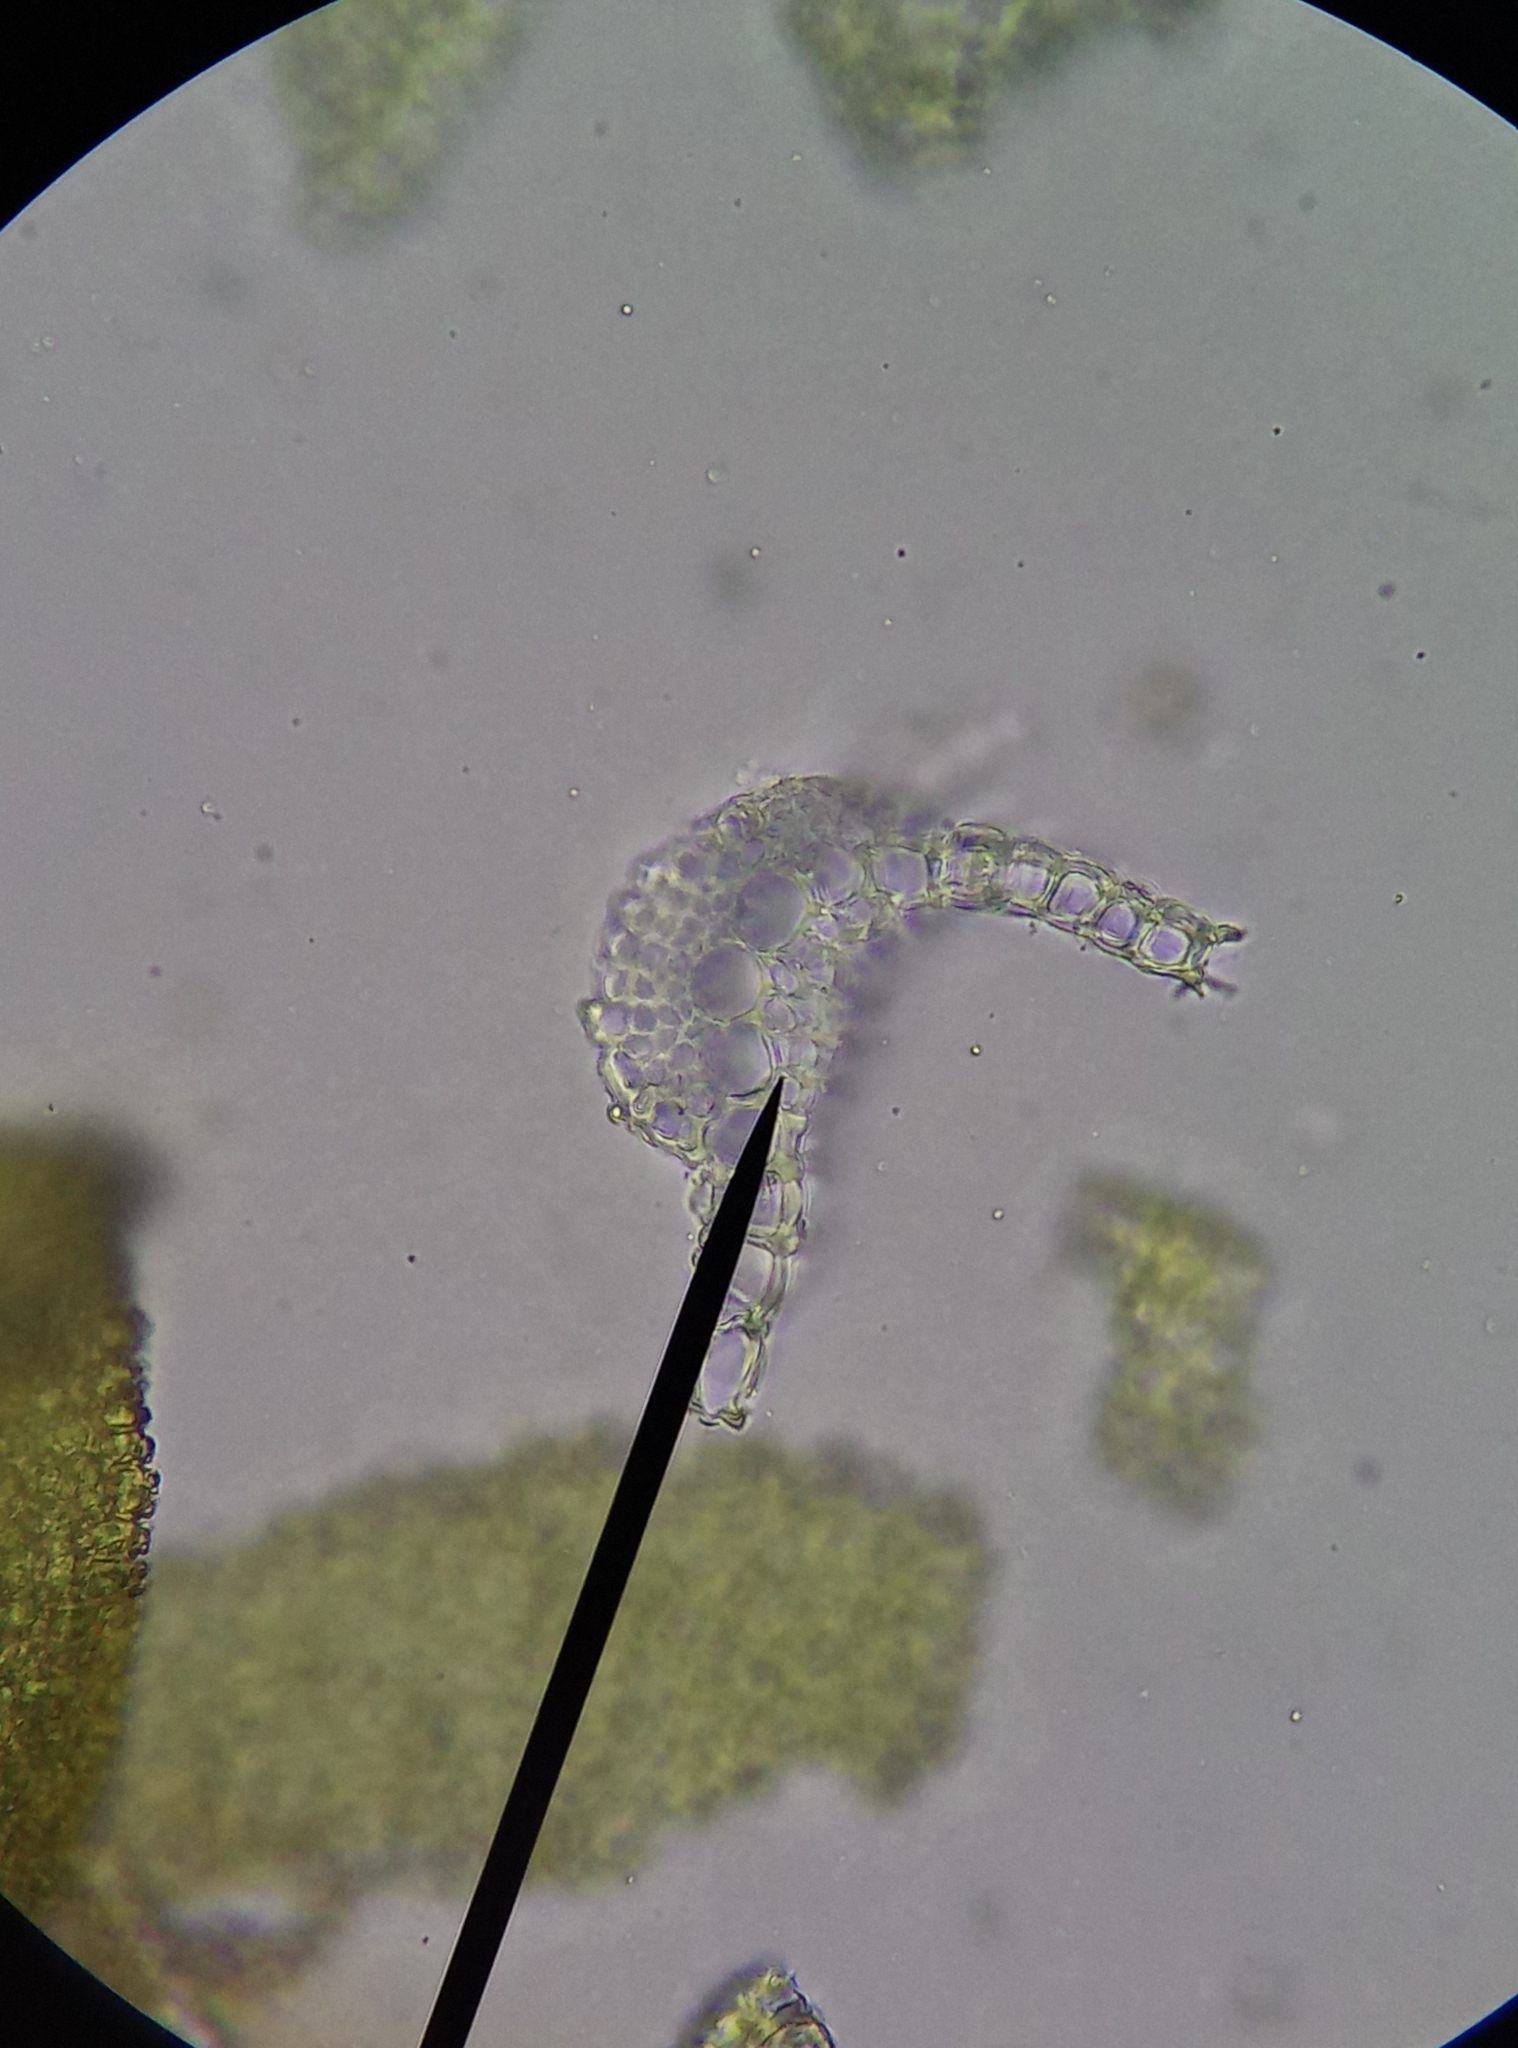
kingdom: Plantae
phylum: Bryophyta
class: Bryopsida
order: Pottiales
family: Pottiaceae
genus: Barbula
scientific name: Barbula unguiculata
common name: Prickly beard moss
